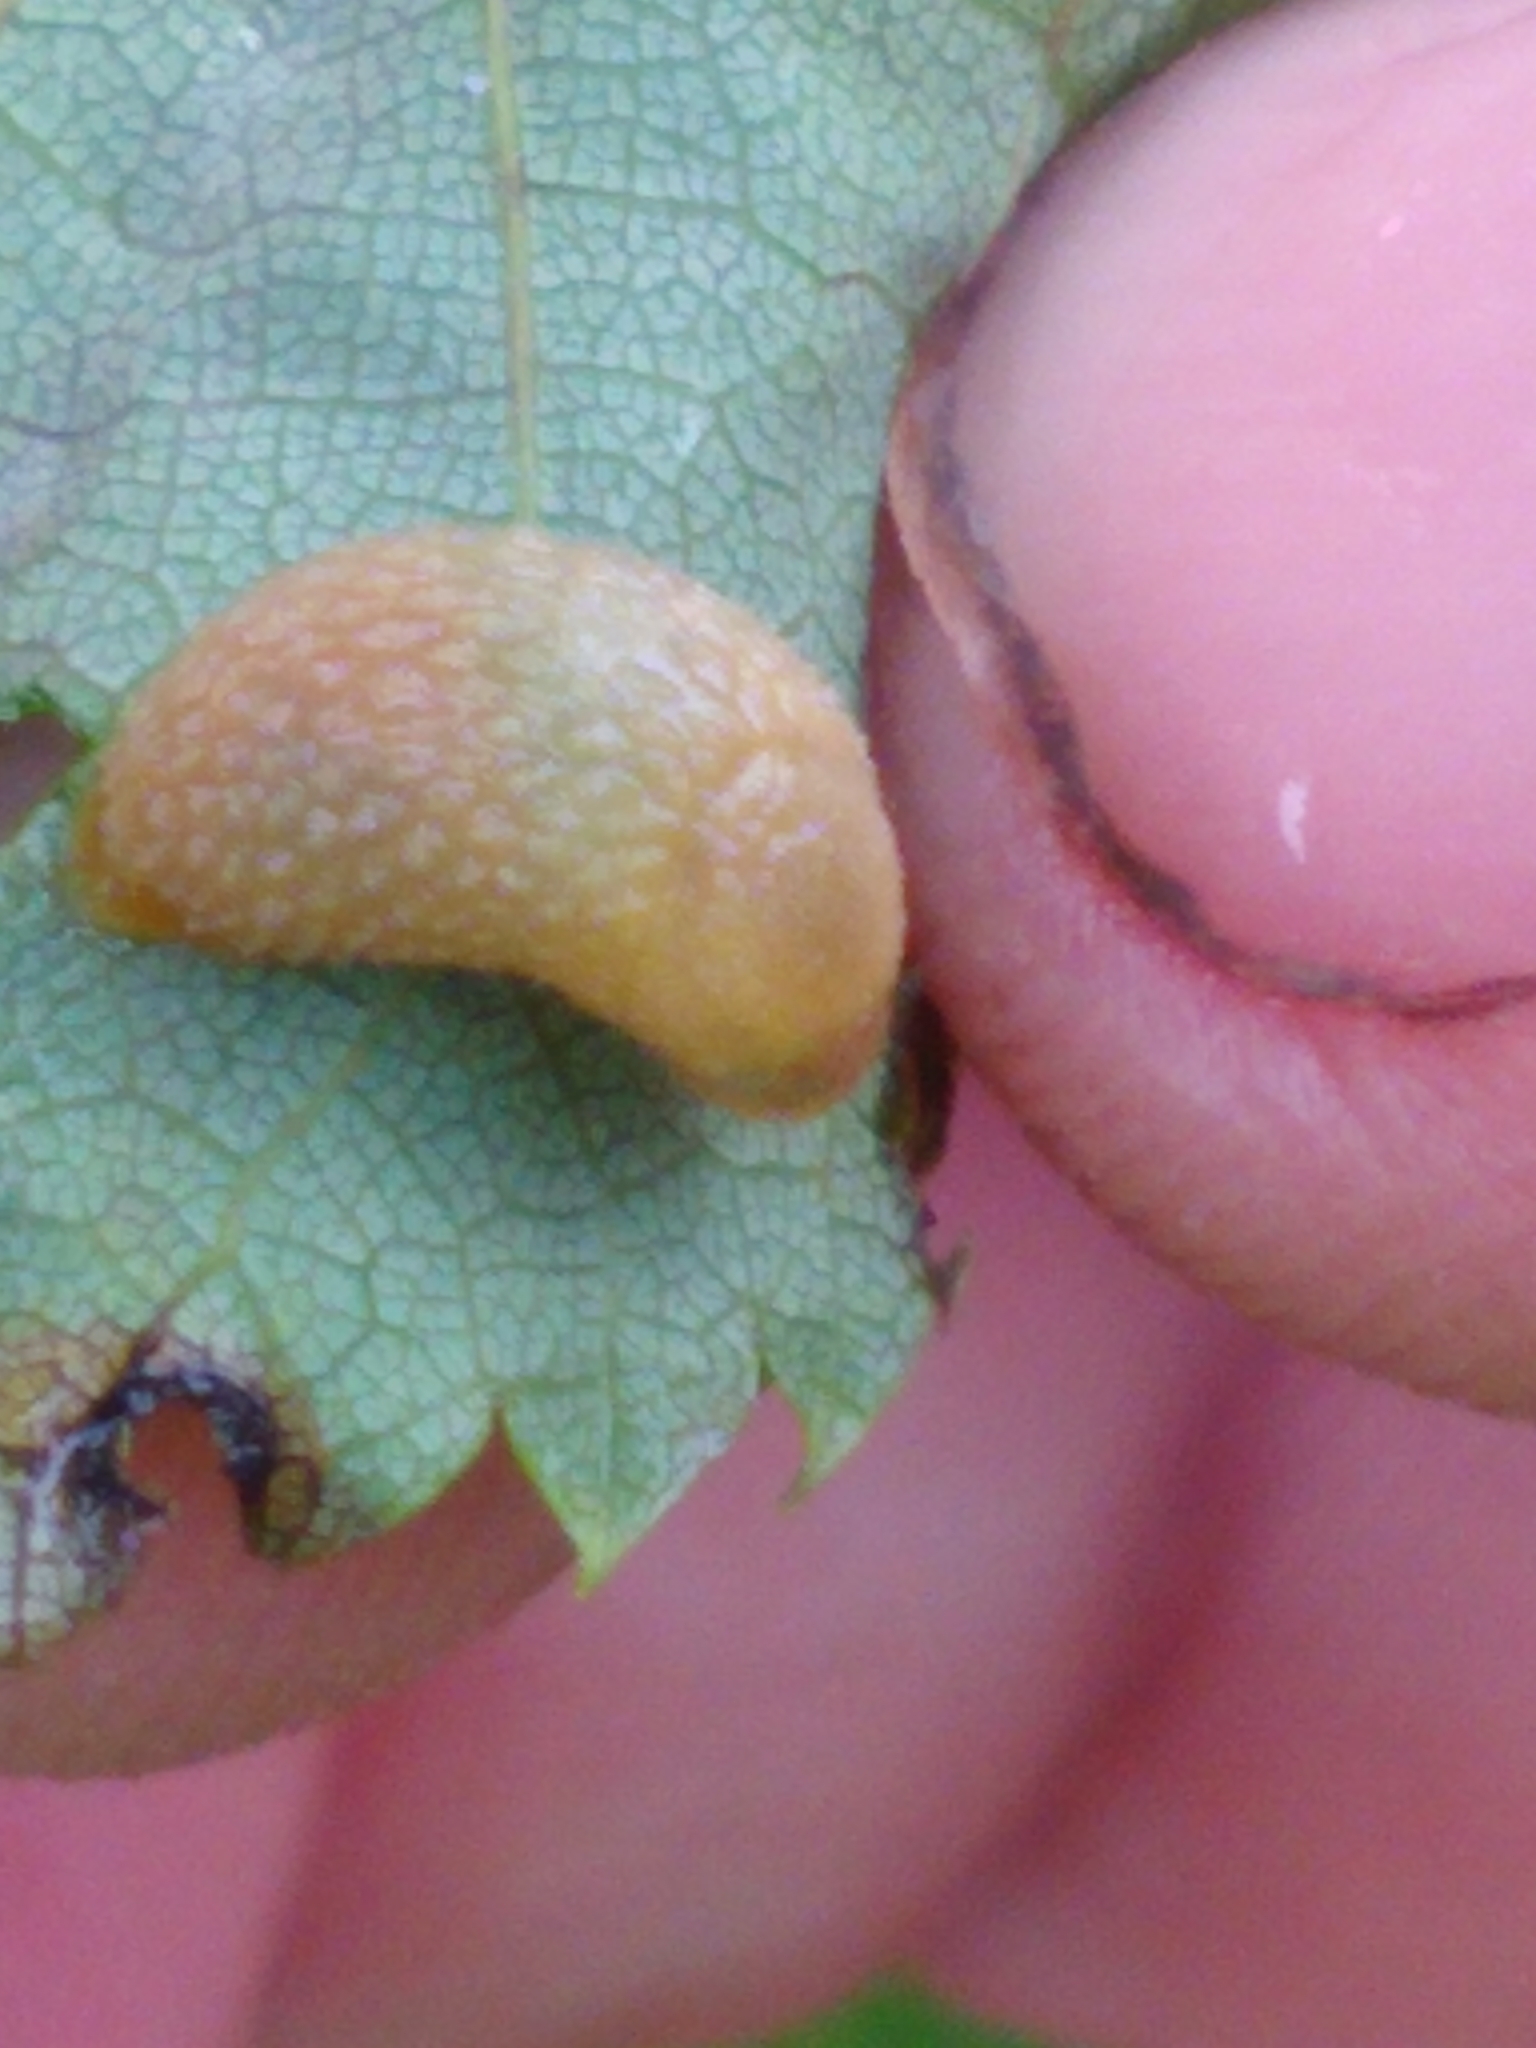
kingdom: Animalia
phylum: Mollusca
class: Gastropoda
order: Stylommatophora
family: Arionidae
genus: Arion
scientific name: Arion intermedius
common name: Hedgehog slug
